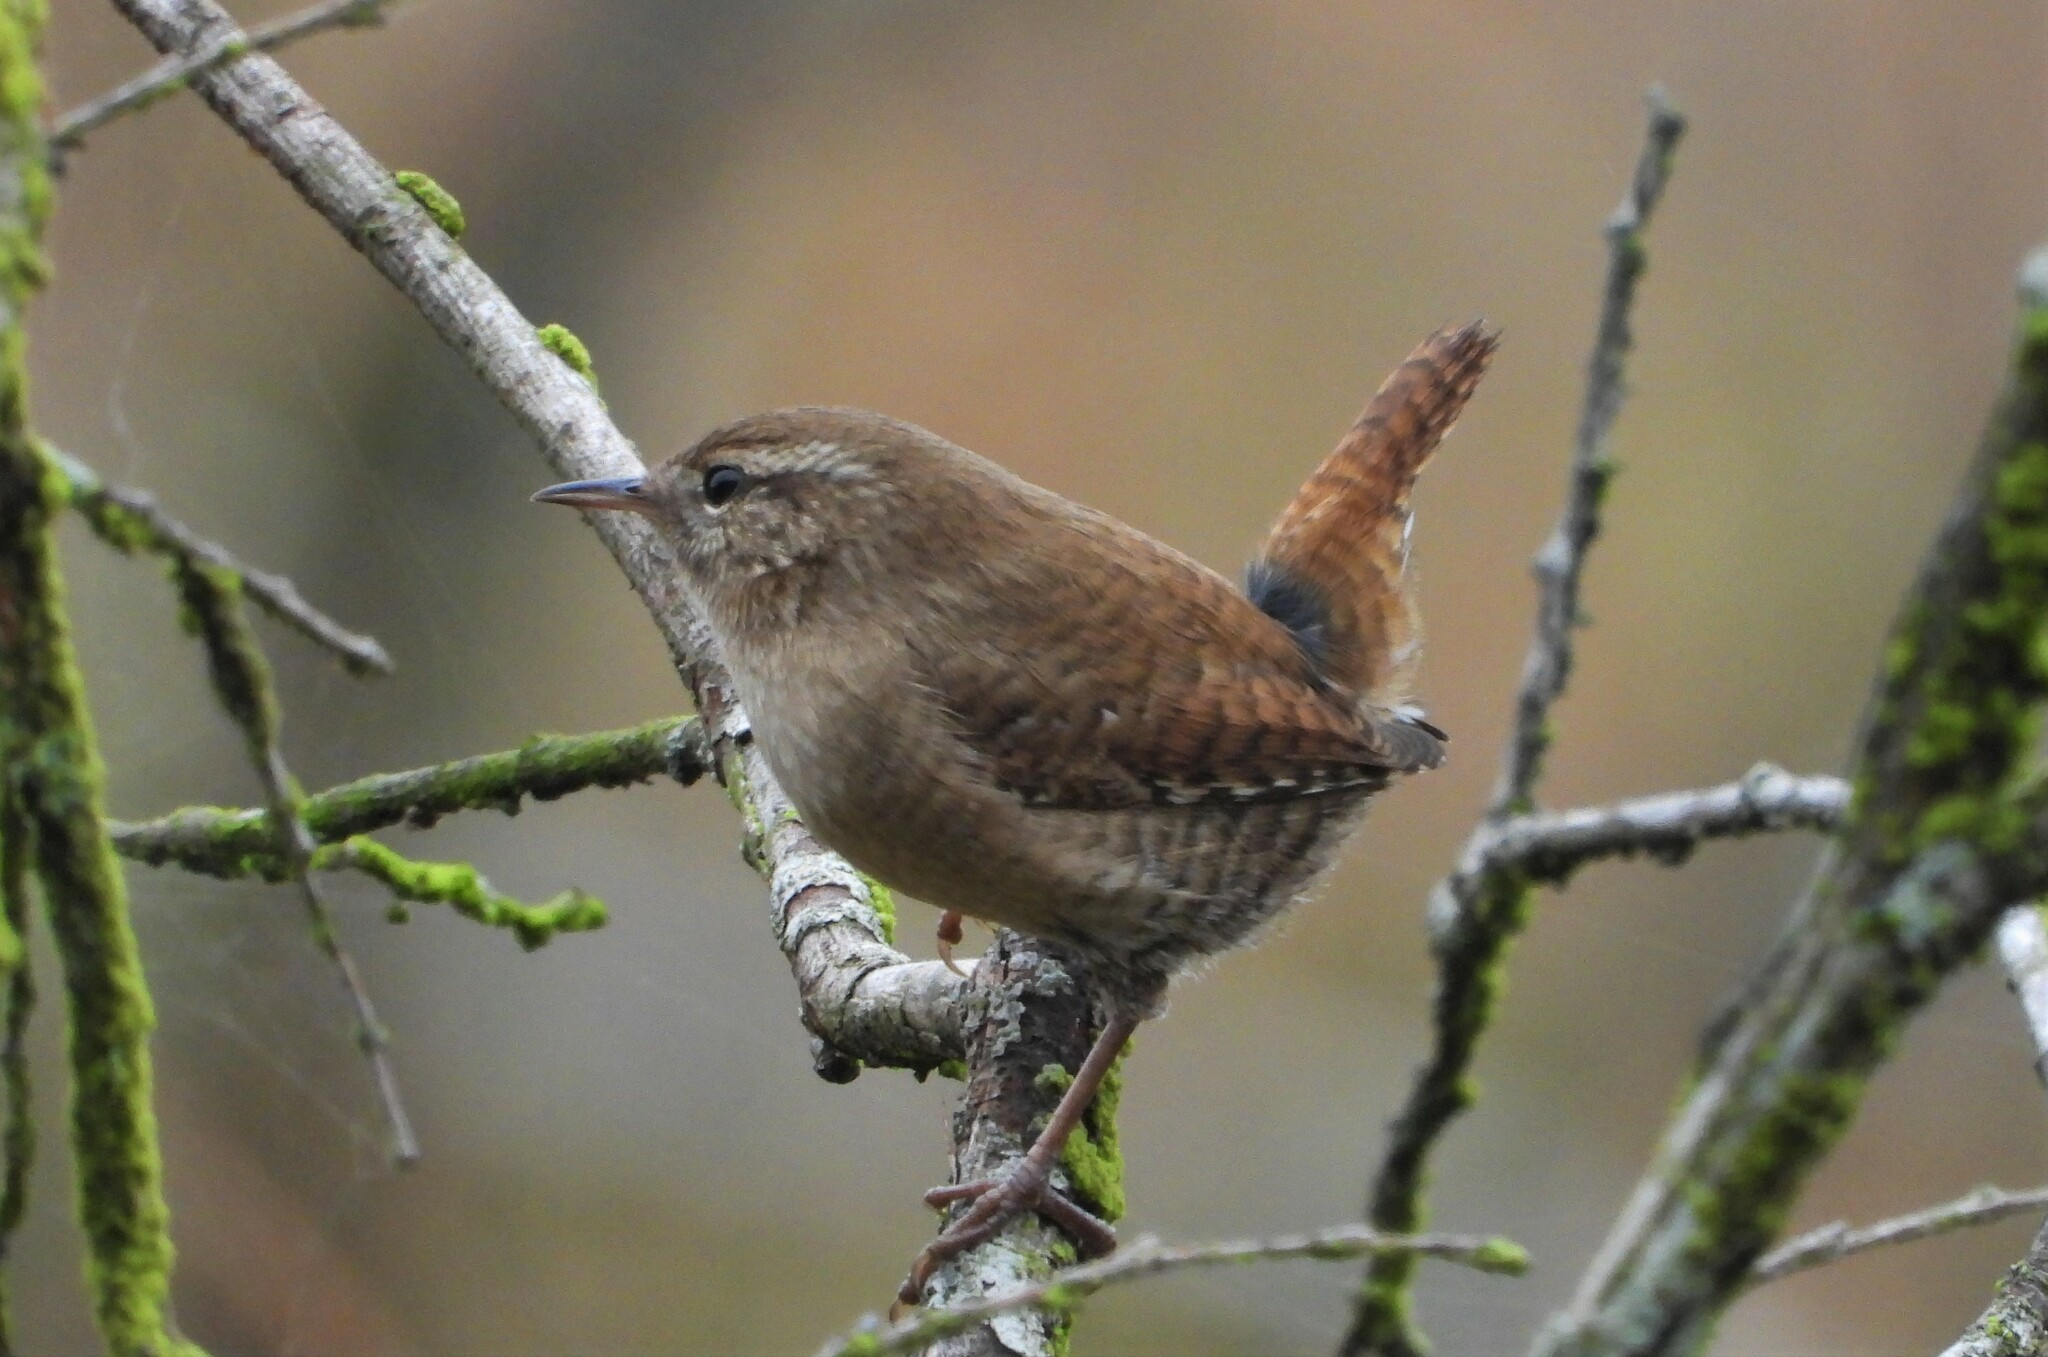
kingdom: Animalia
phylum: Chordata
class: Aves
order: Passeriformes
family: Troglodytidae
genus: Troglodytes
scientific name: Troglodytes troglodytes
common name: Eurasian wren
